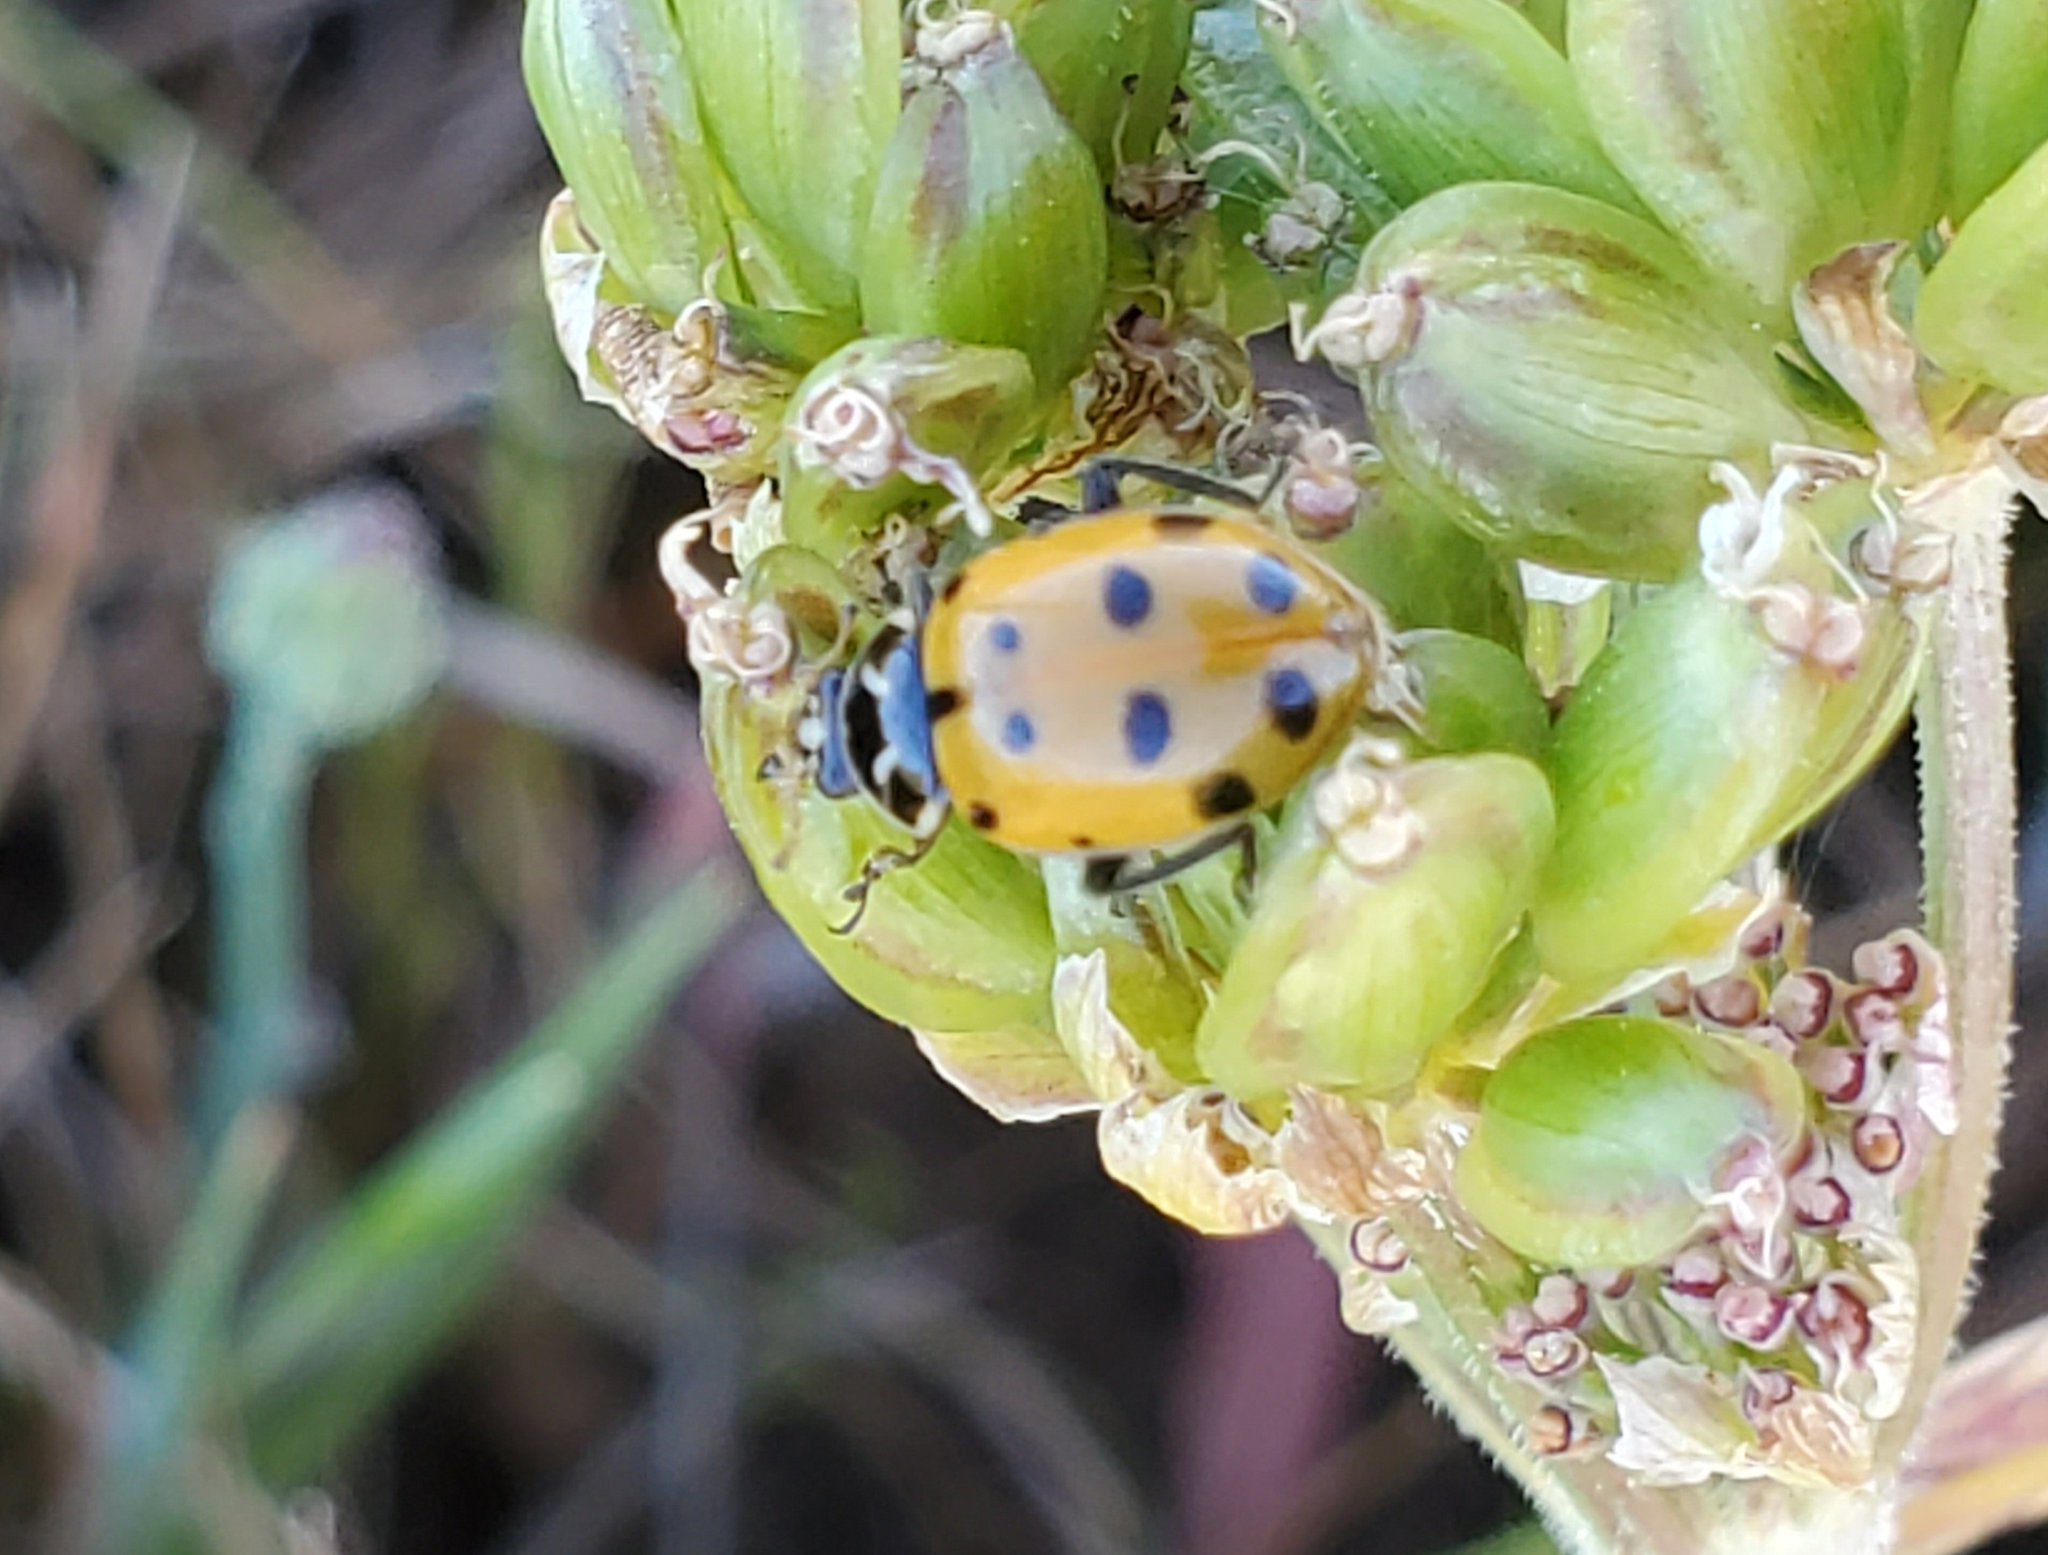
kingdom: Animalia
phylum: Arthropoda
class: Insecta
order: Coleoptera
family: Coccinellidae
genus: Hippodamia
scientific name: Hippodamia convergens
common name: Convergent lady beetle
